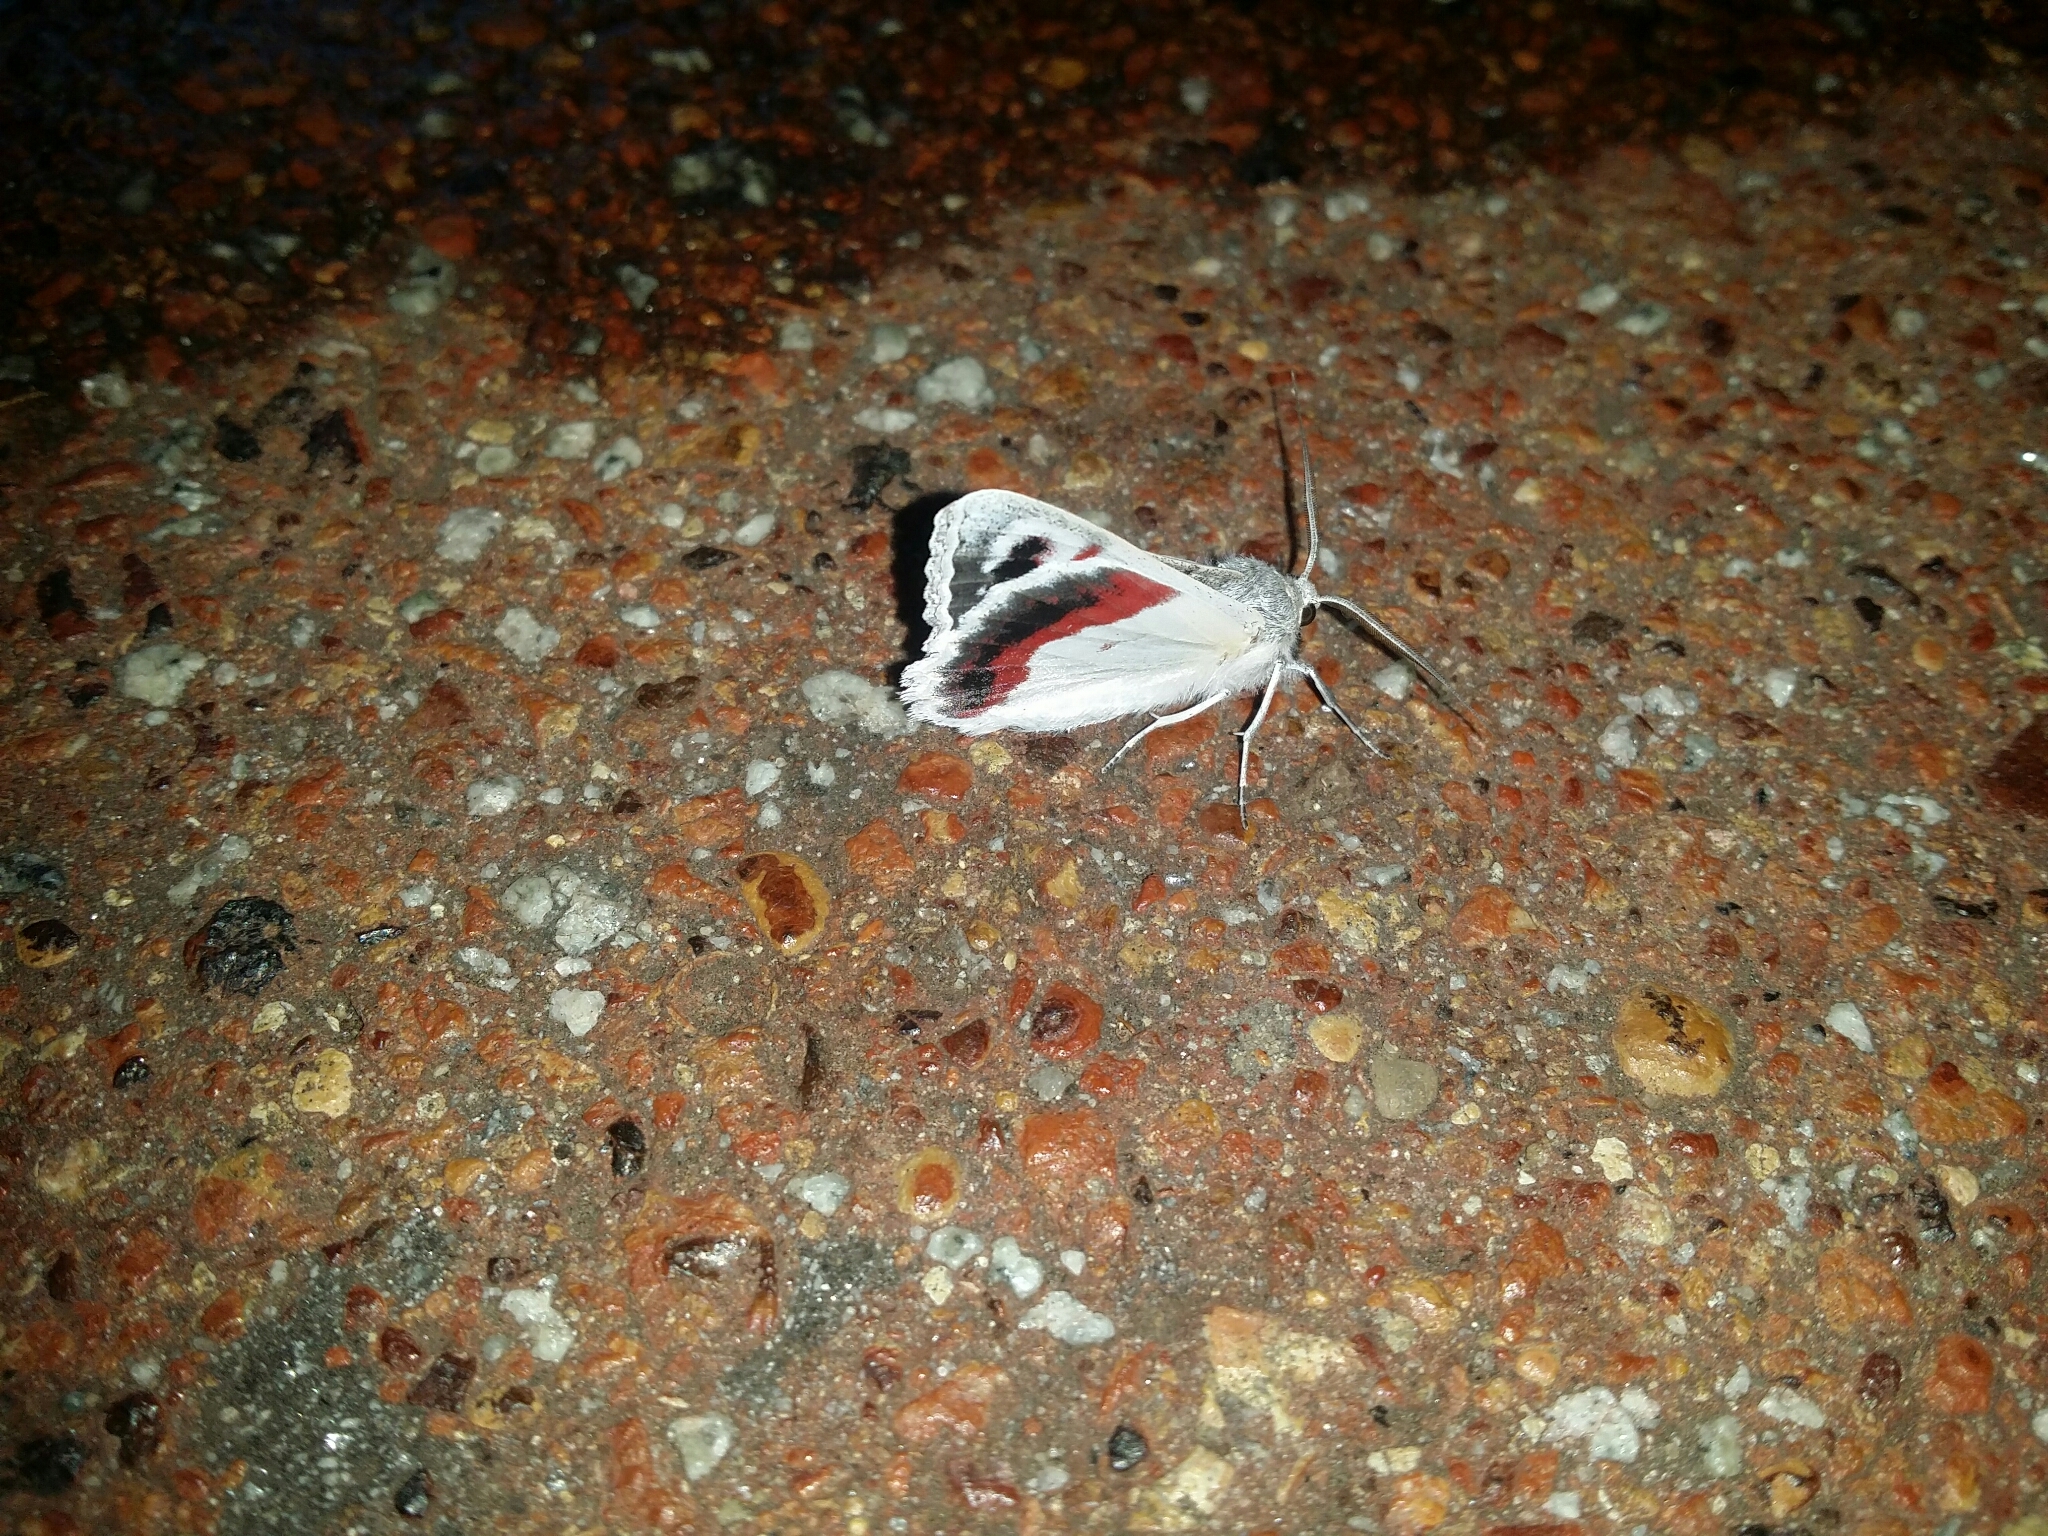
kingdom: Animalia
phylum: Arthropoda
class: Insecta
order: Lepidoptera
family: Geometridae
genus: Crypsiphona
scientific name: Crypsiphona ocultaria
